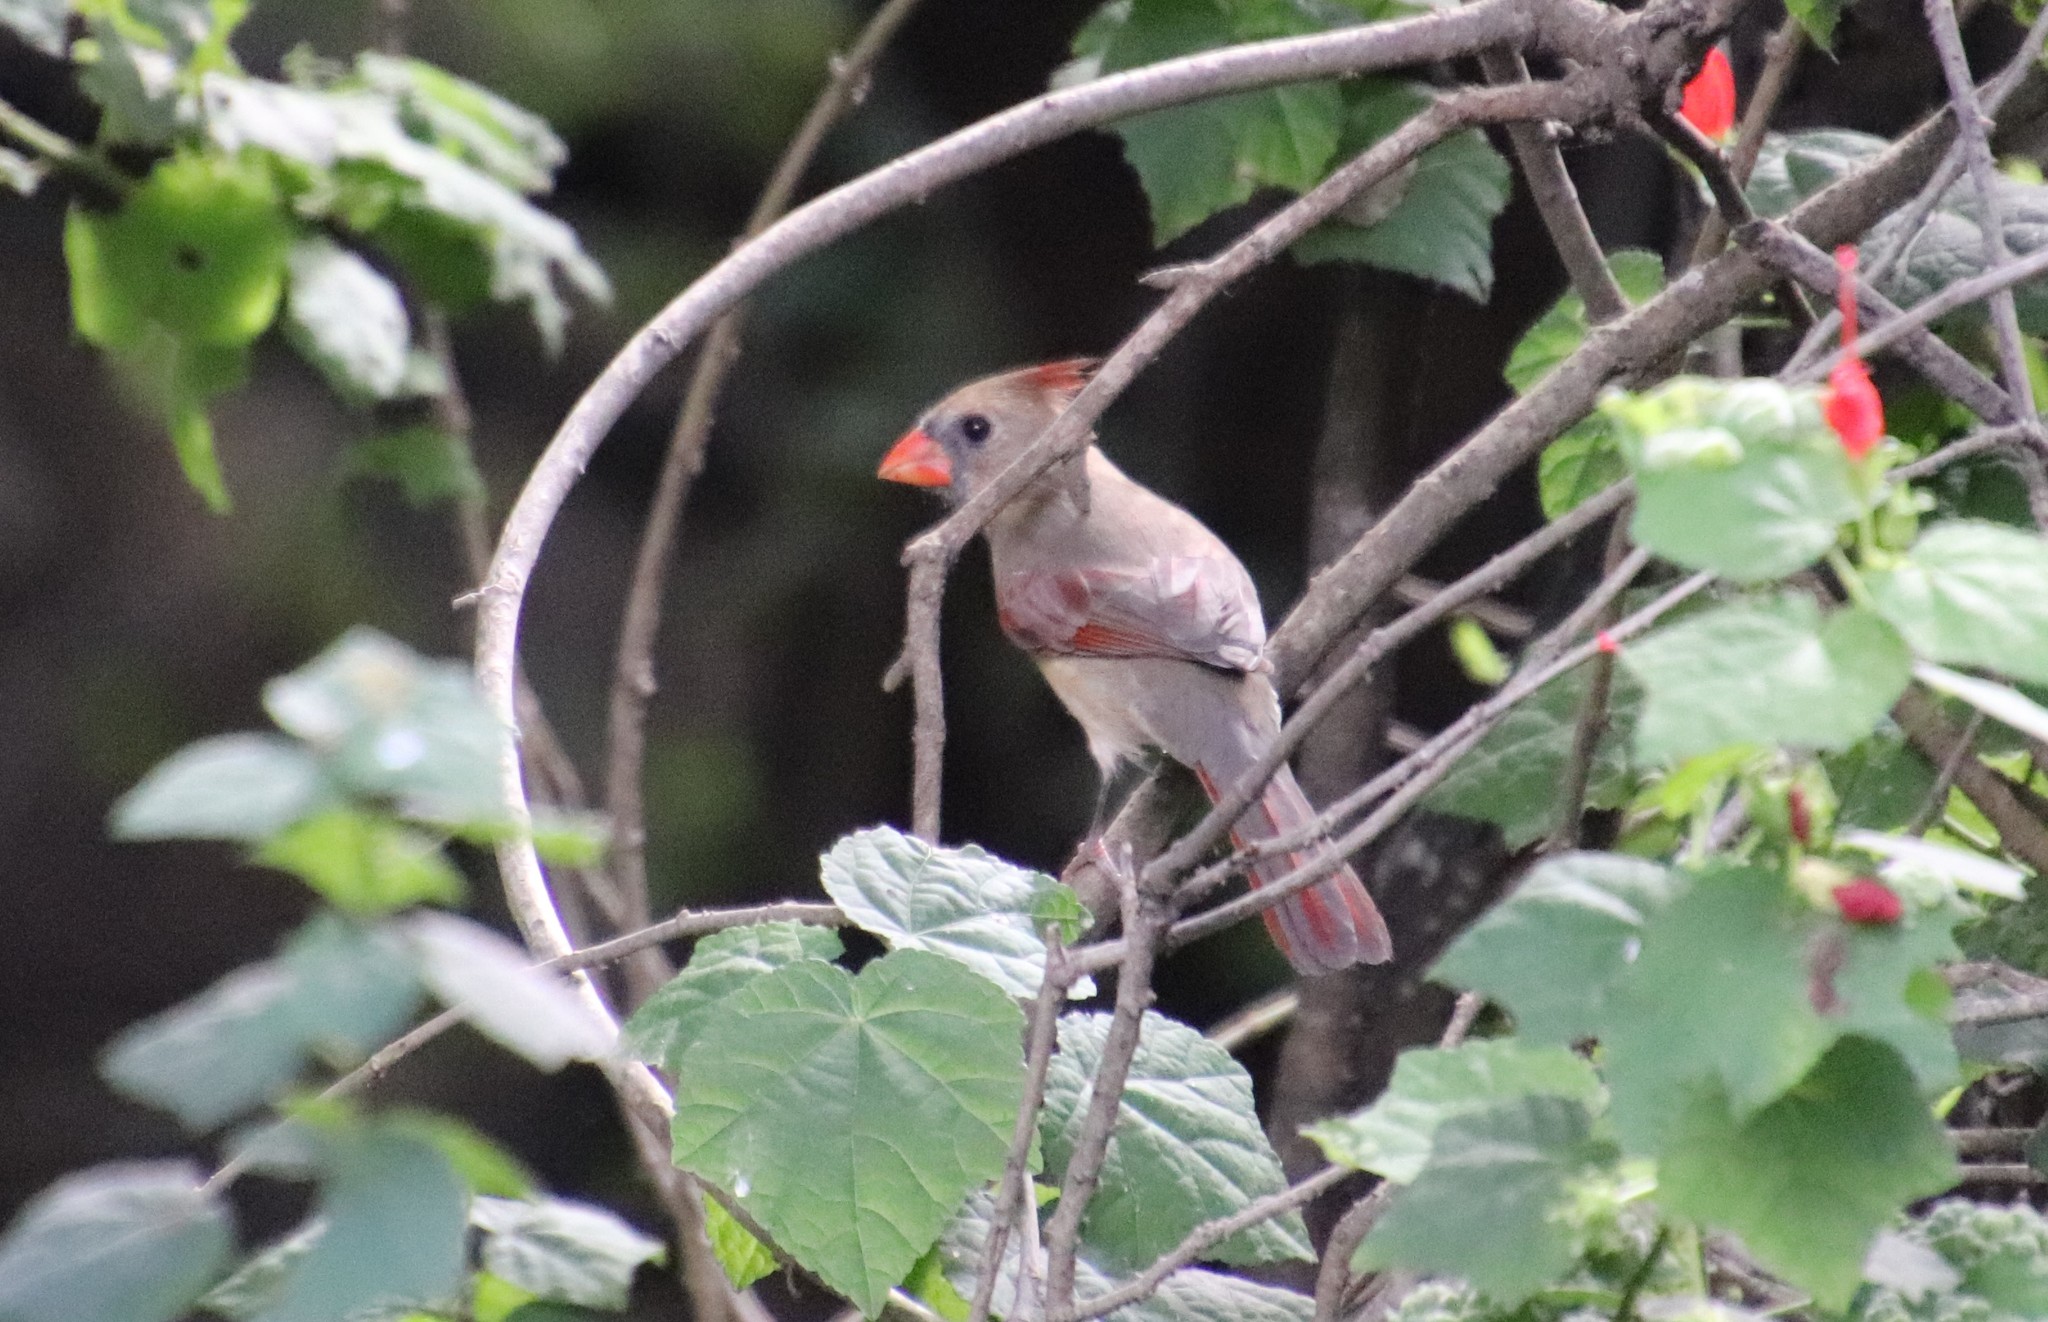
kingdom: Animalia
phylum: Chordata
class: Aves
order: Passeriformes
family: Cardinalidae
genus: Cardinalis
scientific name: Cardinalis cardinalis
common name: Northern cardinal
